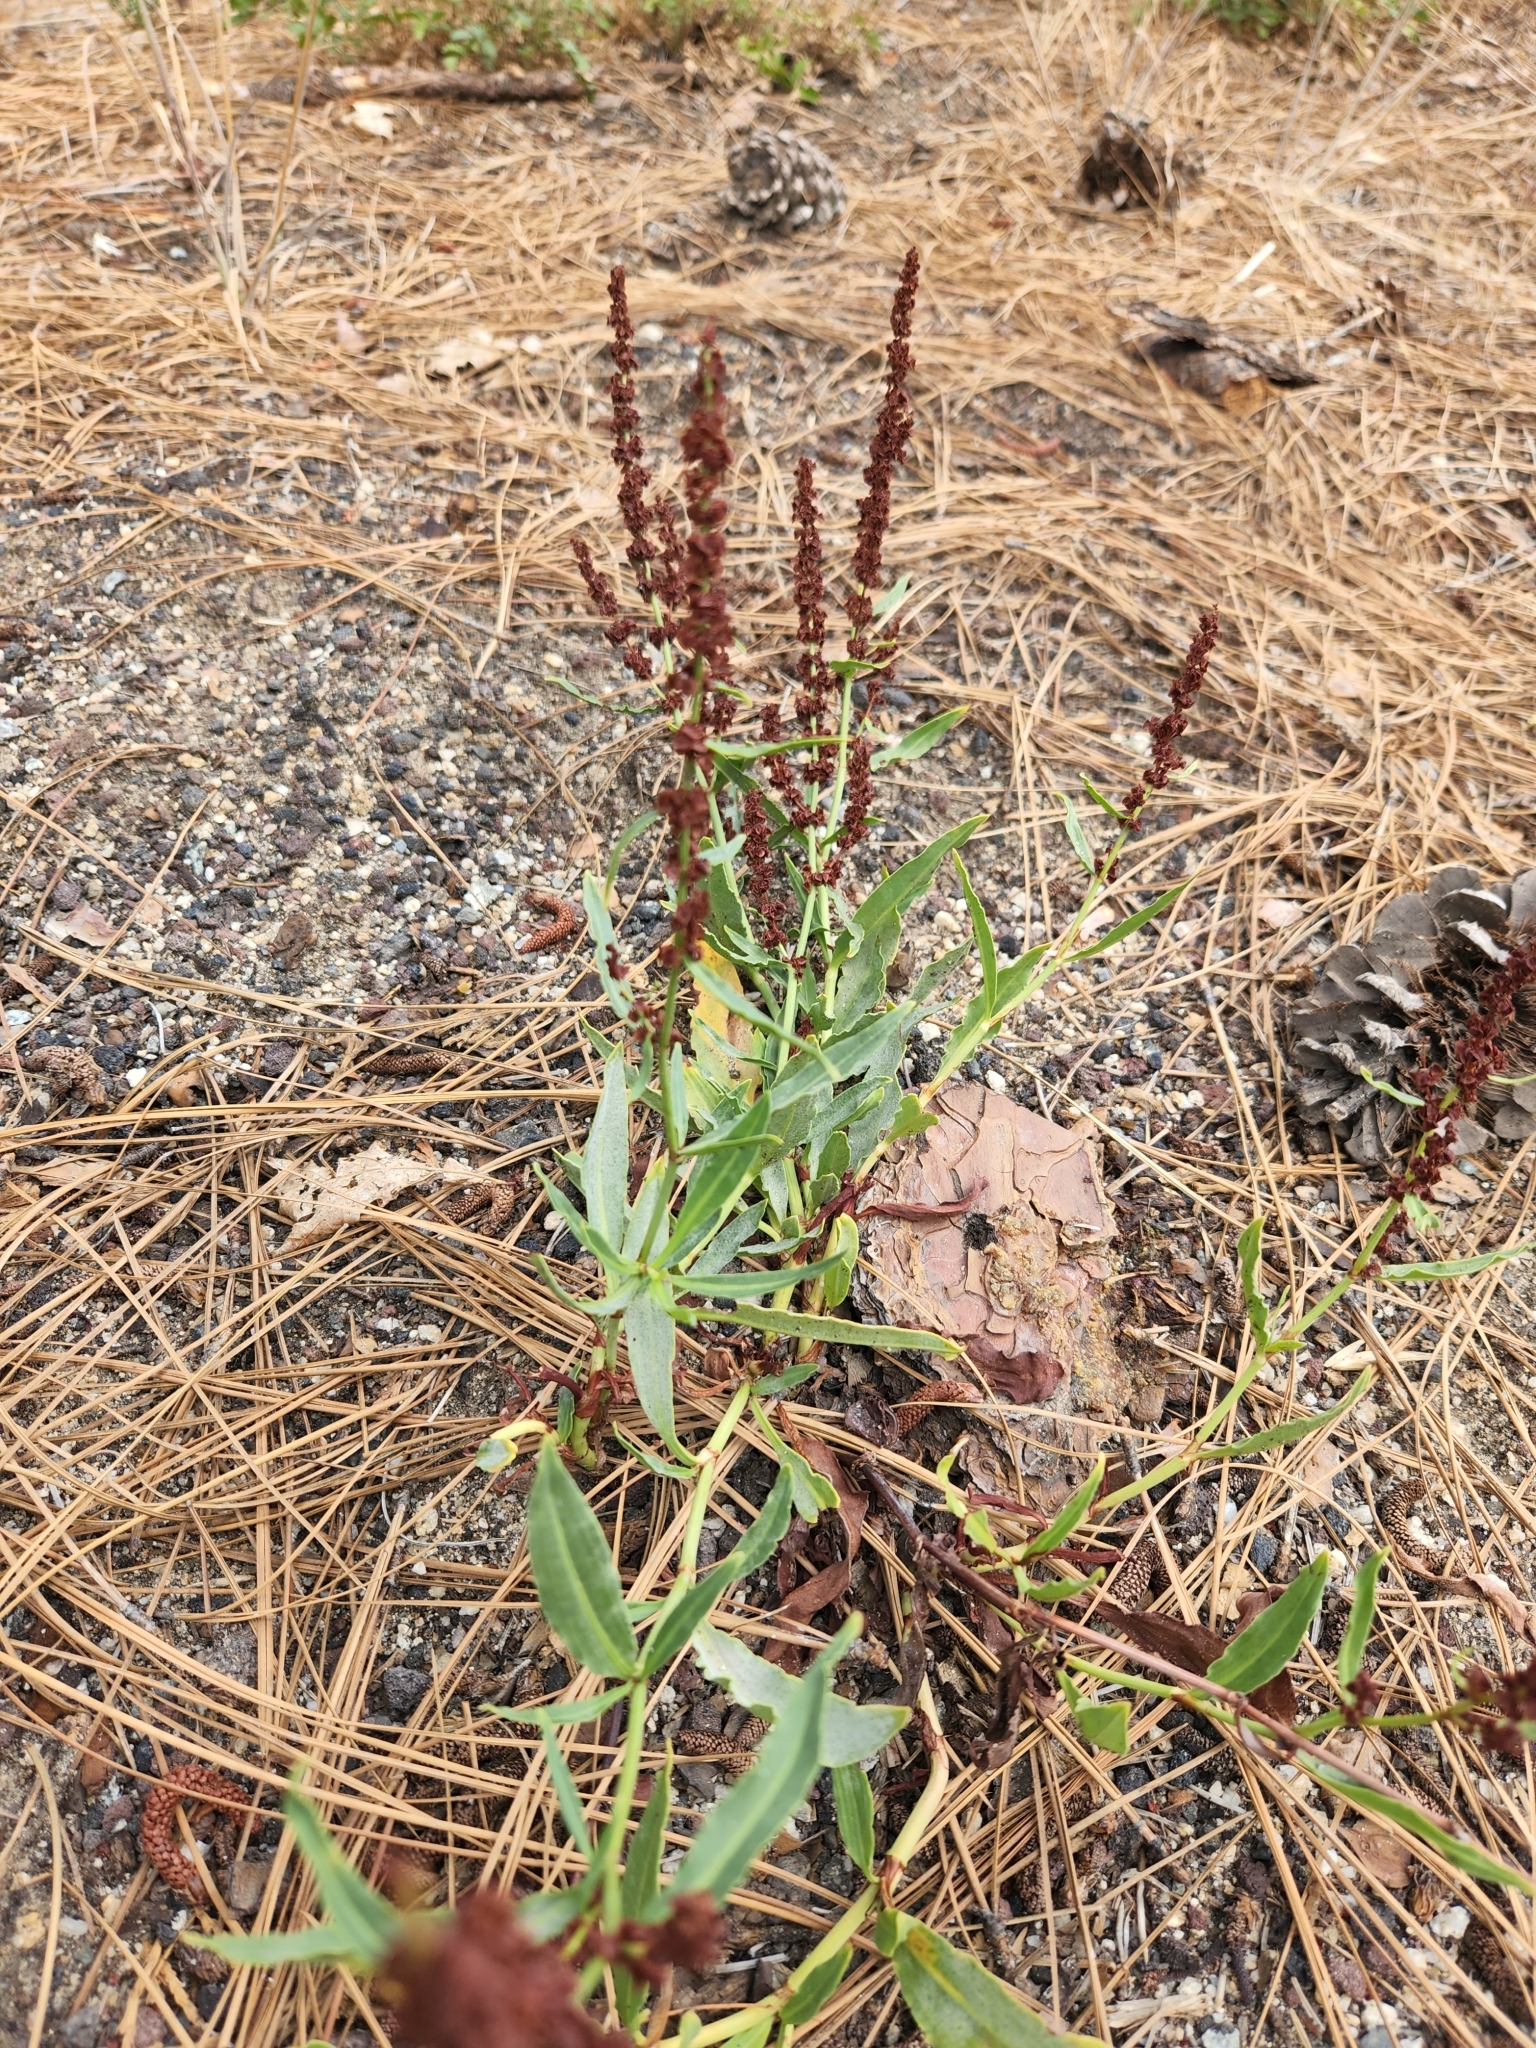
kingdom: Plantae
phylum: Tracheophyta
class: Magnoliopsida
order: Caryophyllales
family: Polygonaceae
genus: Rumex
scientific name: Rumex salicifolius
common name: Willow-leaved dock
